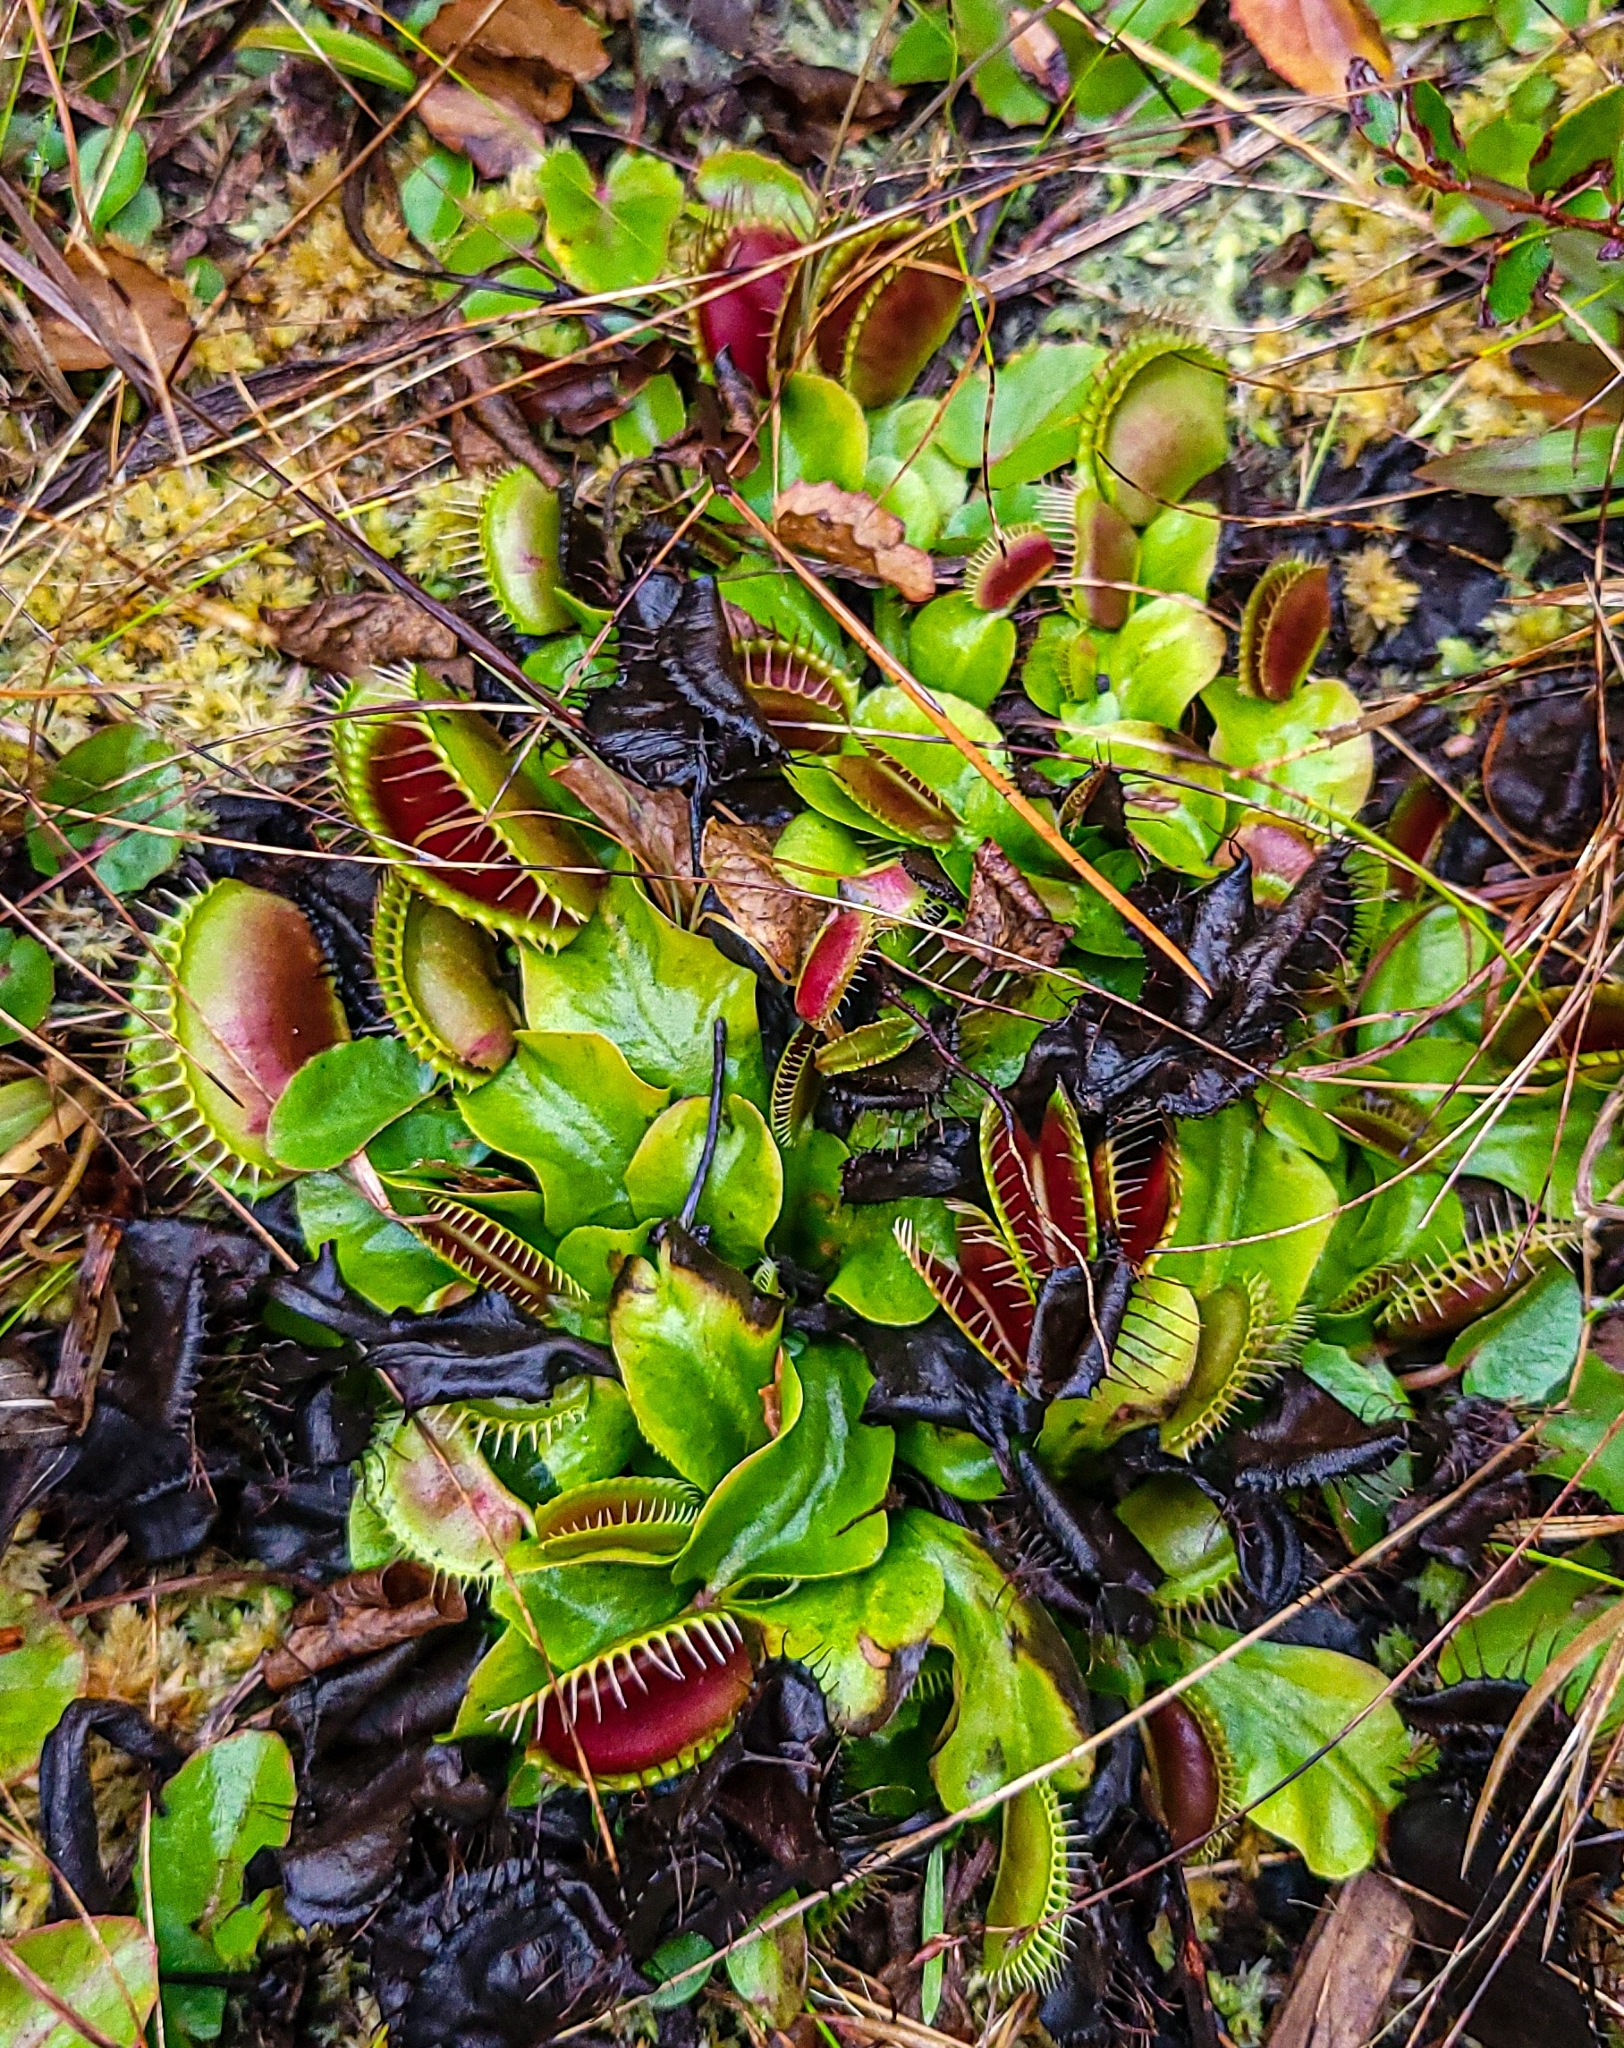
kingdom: Plantae
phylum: Tracheophyta
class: Magnoliopsida
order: Caryophyllales
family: Droseraceae
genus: Dionaea
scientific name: Dionaea muscipula
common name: Venus flytrap
